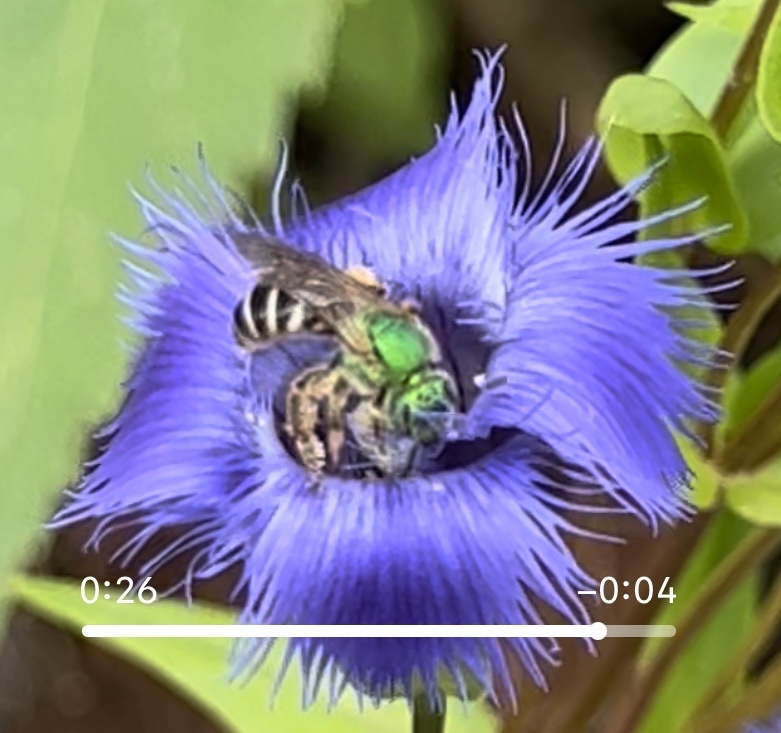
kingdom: Animalia
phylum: Arthropoda
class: Insecta
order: Hymenoptera
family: Halictidae
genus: Agapostemon
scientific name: Agapostemon virescens
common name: Bicolored striped sweat bee
